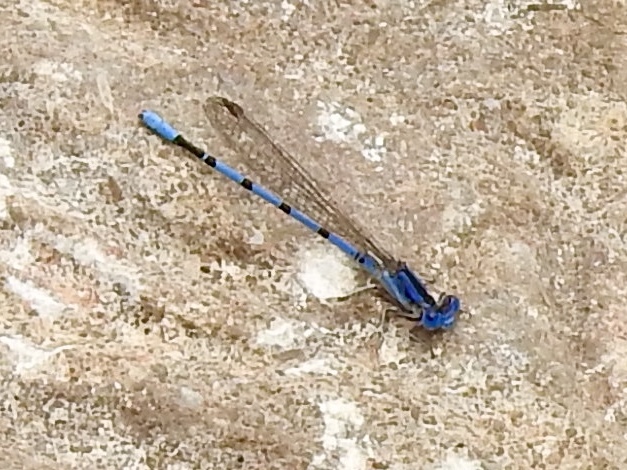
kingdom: Animalia
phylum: Arthropoda
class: Insecta
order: Odonata
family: Coenagrionidae
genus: Argia
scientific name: Argia nahuana
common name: Aztec dancer
